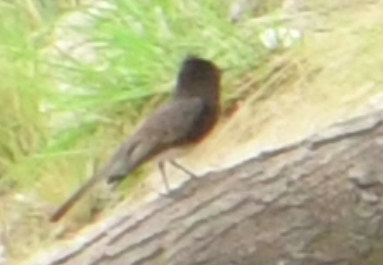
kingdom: Animalia
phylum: Chordata
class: Aves
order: Passeriformes
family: Tyrannidae
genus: Sayornis
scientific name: Sayornis nigricans
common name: Black phoebe
